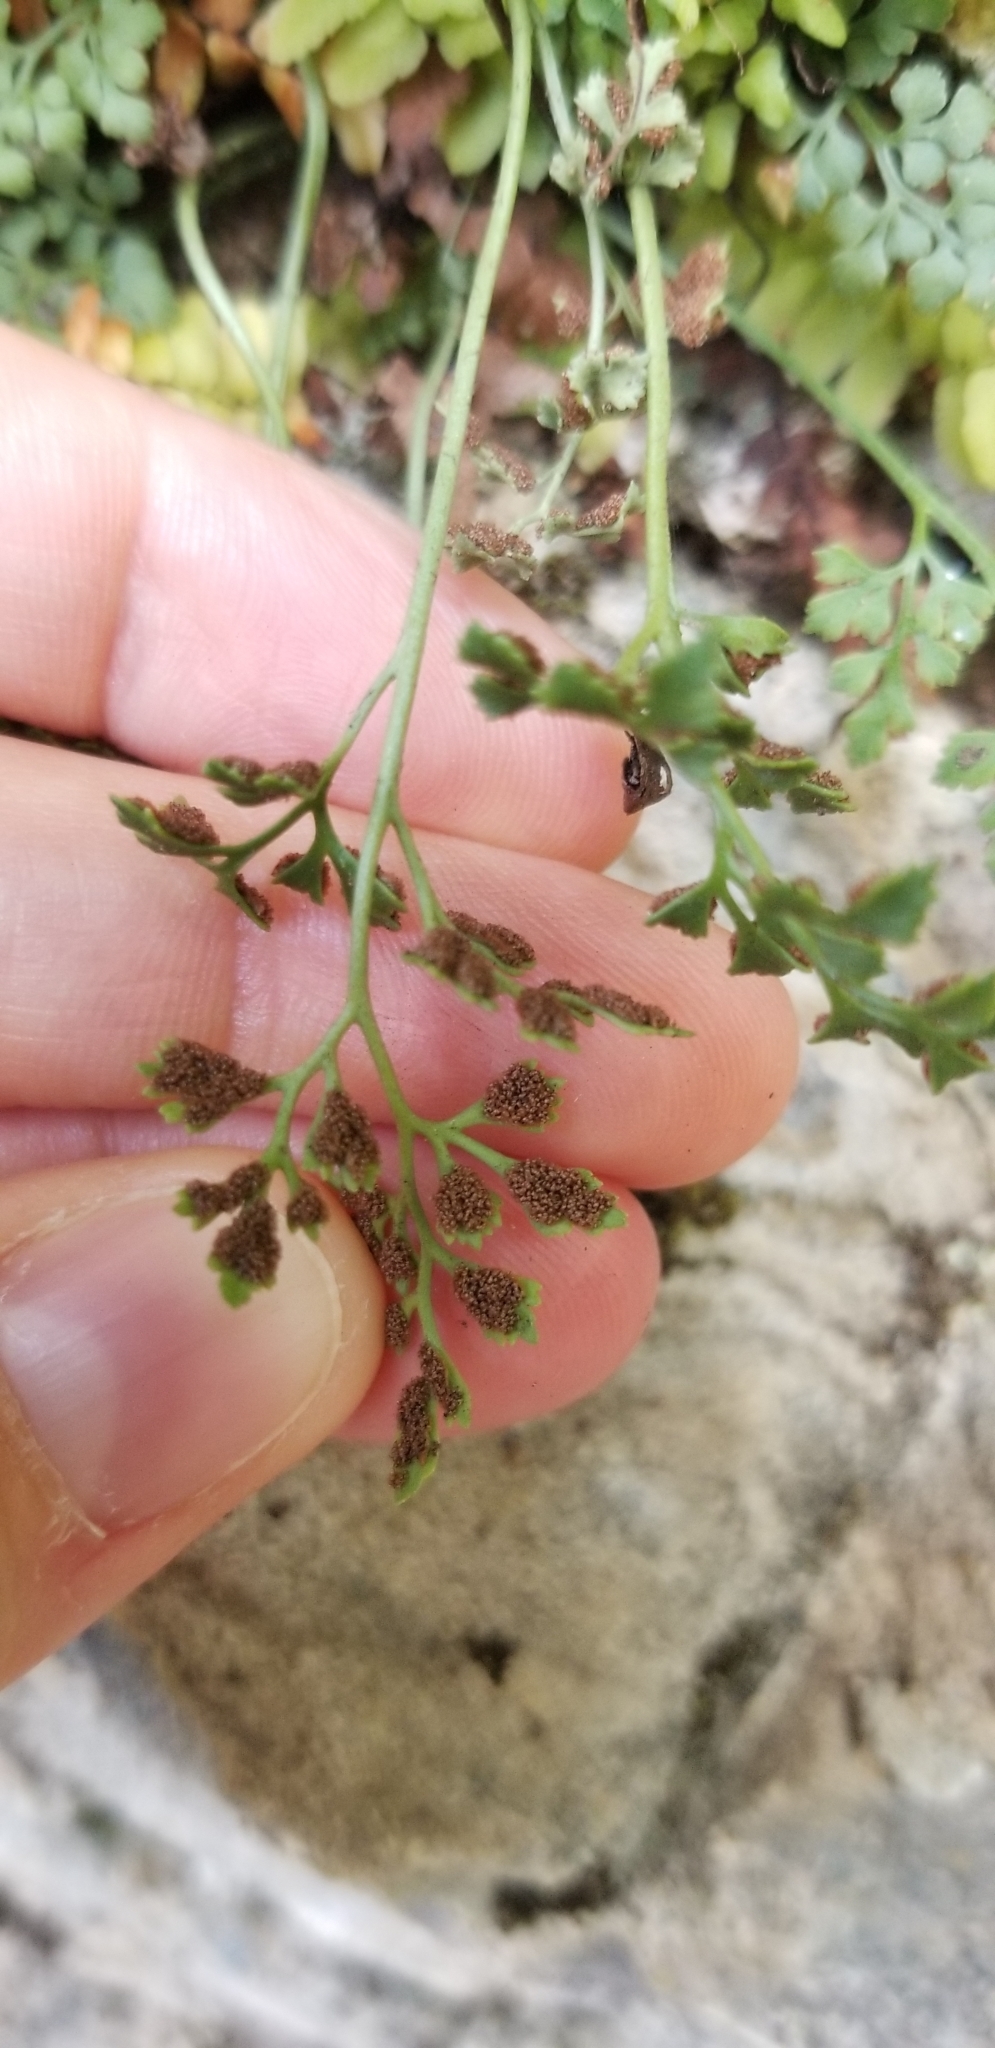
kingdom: Plantae
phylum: Tracheophyta
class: Polypodiopsida
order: Polypodiales
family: Aspleniaceae
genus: Asplenium
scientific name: Asplenium ruta-muraria
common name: Wall-rue
